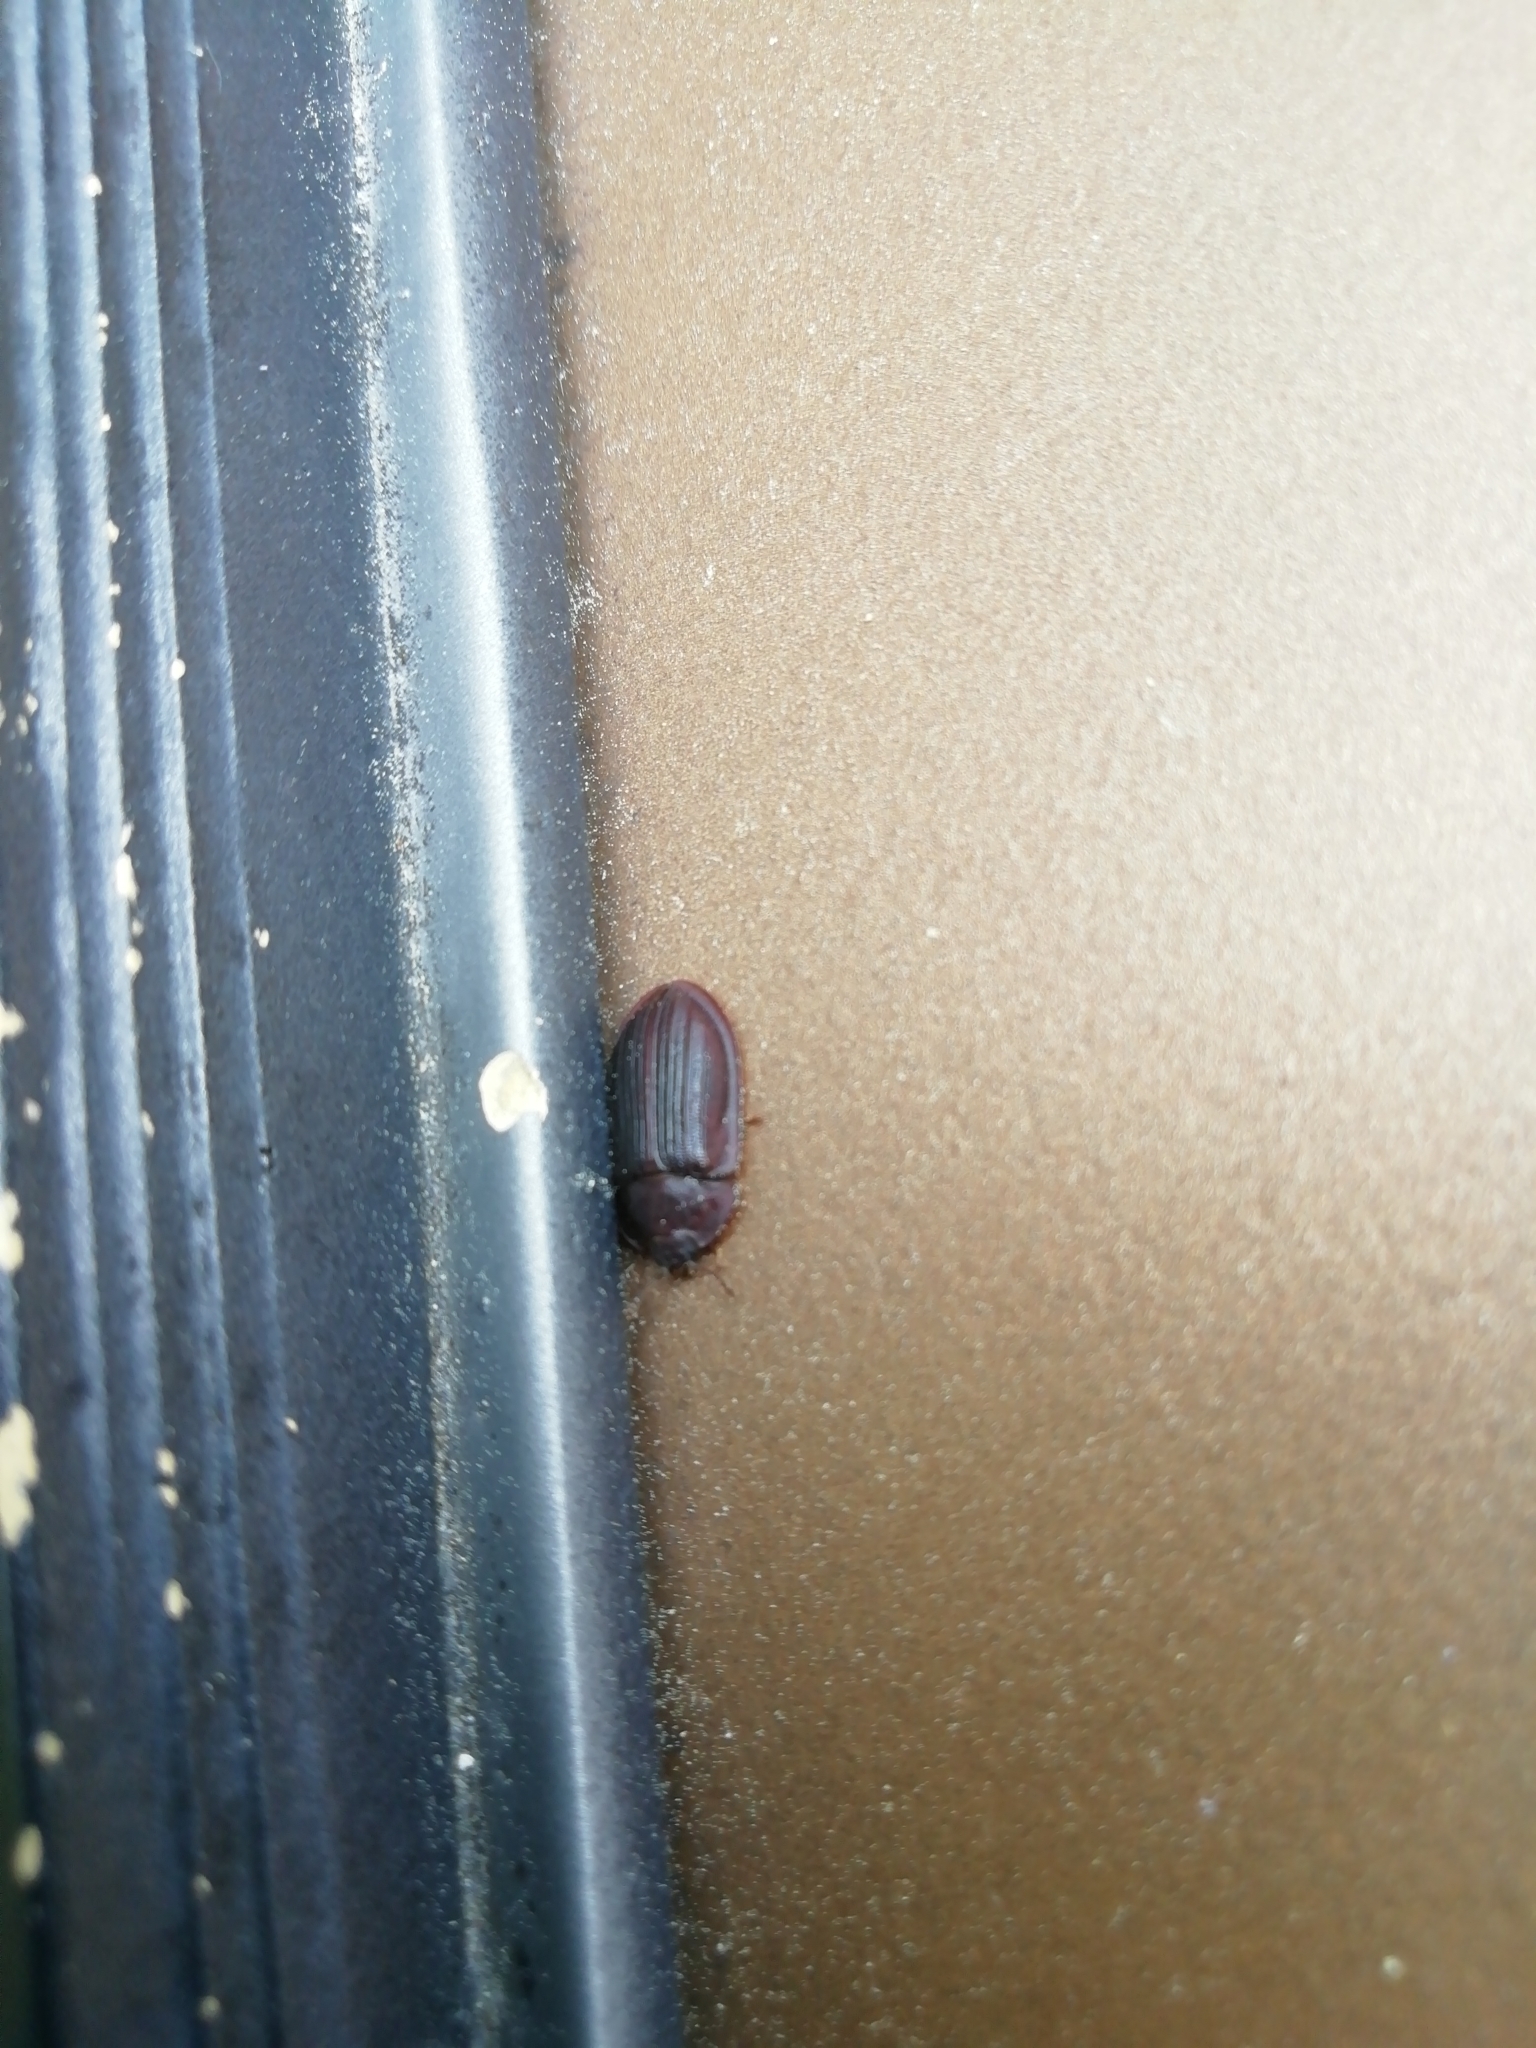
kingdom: Animalia
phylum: Arthropoda
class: Insecta
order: Coleoptera
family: Trogossitidae
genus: Peltis
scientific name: Peltis ferruginea
